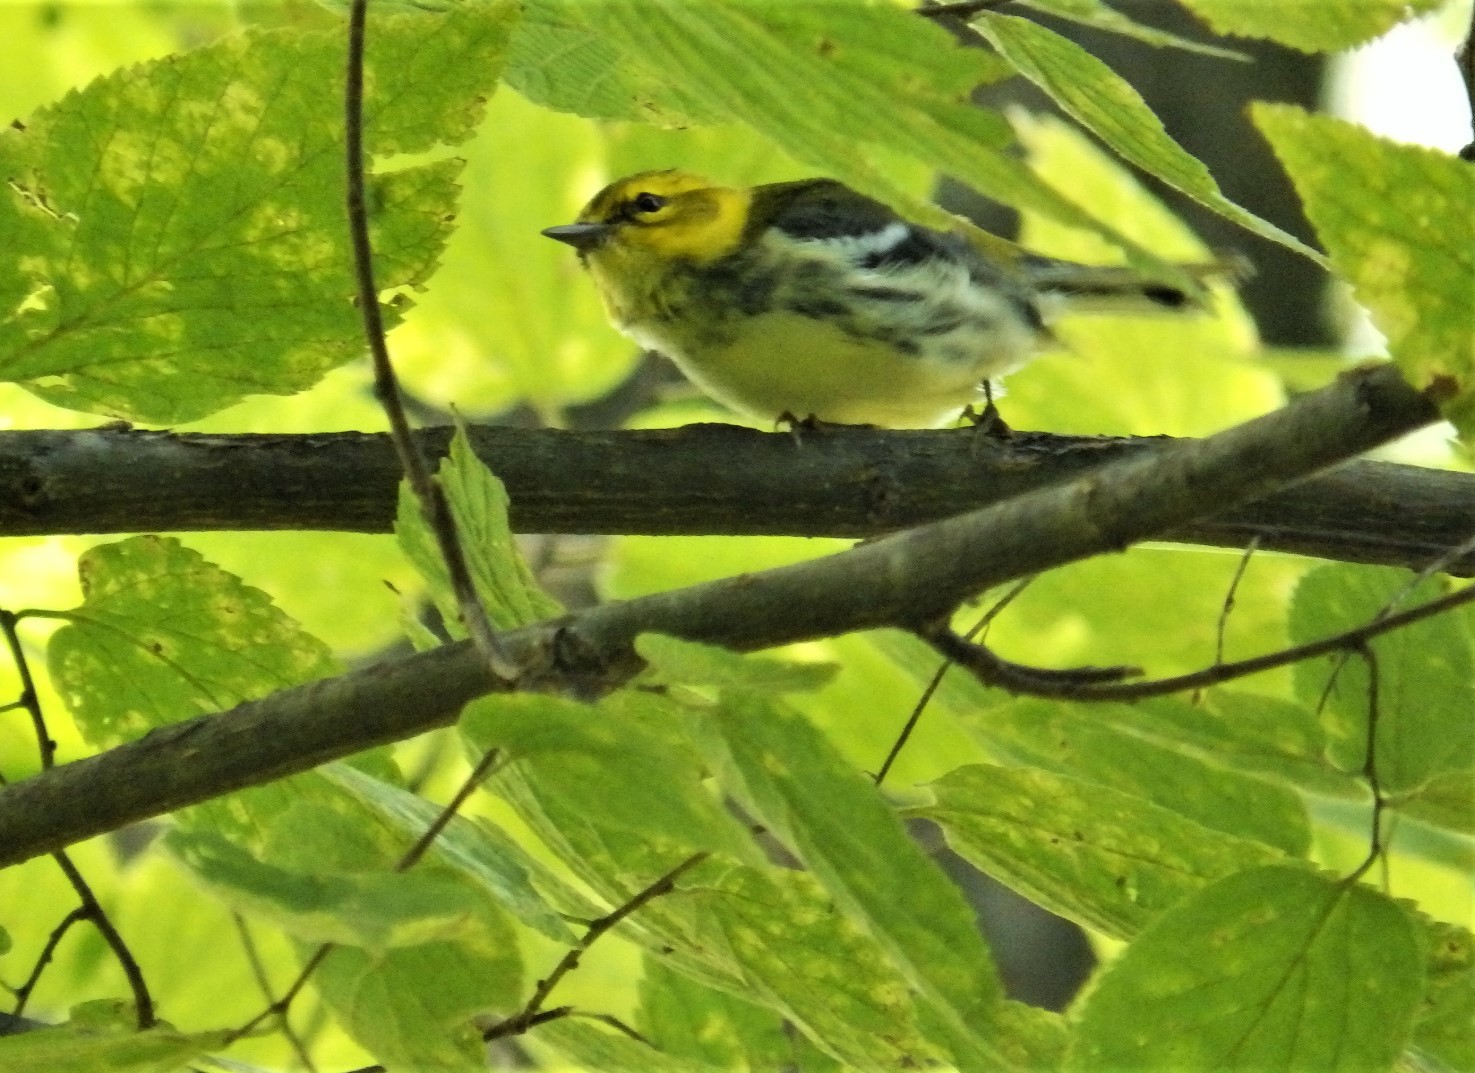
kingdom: Animalia
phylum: Chordata
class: Aves
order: Passeriformes
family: Parulidae
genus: Setophaga
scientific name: Setophaga virens
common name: Black-throated green warbler
